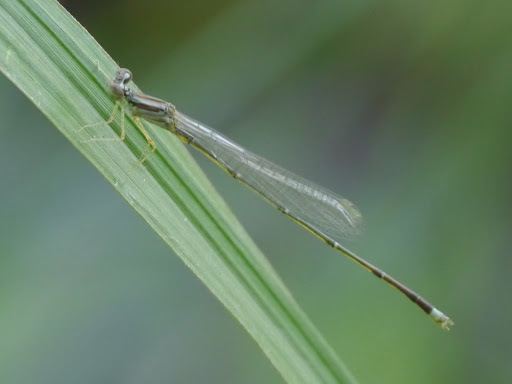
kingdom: Animalia
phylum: Arthropoda
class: Insecta
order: Odonata
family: Coenagrionidae
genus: Enallagma
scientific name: Enallagma signatum
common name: Orange bluet
